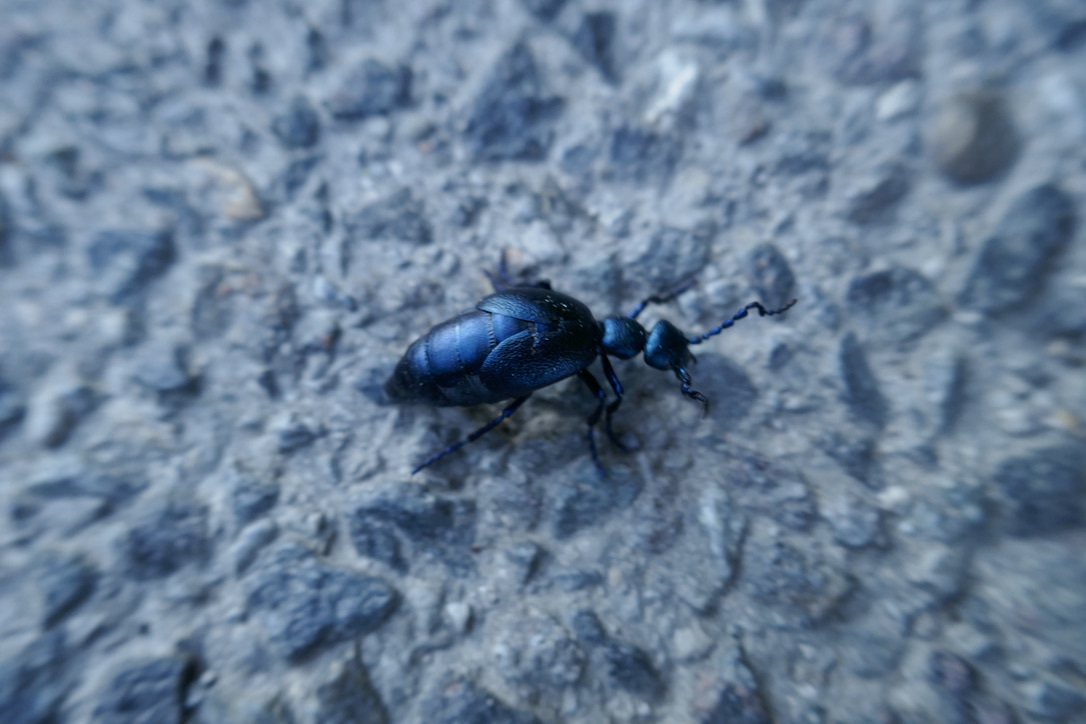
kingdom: Animalia
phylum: Arthropoda
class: Insecta
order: Coleoptera
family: Meloidae
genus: Meloe
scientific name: Meloe violaceus
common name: Violet oil-beetle
